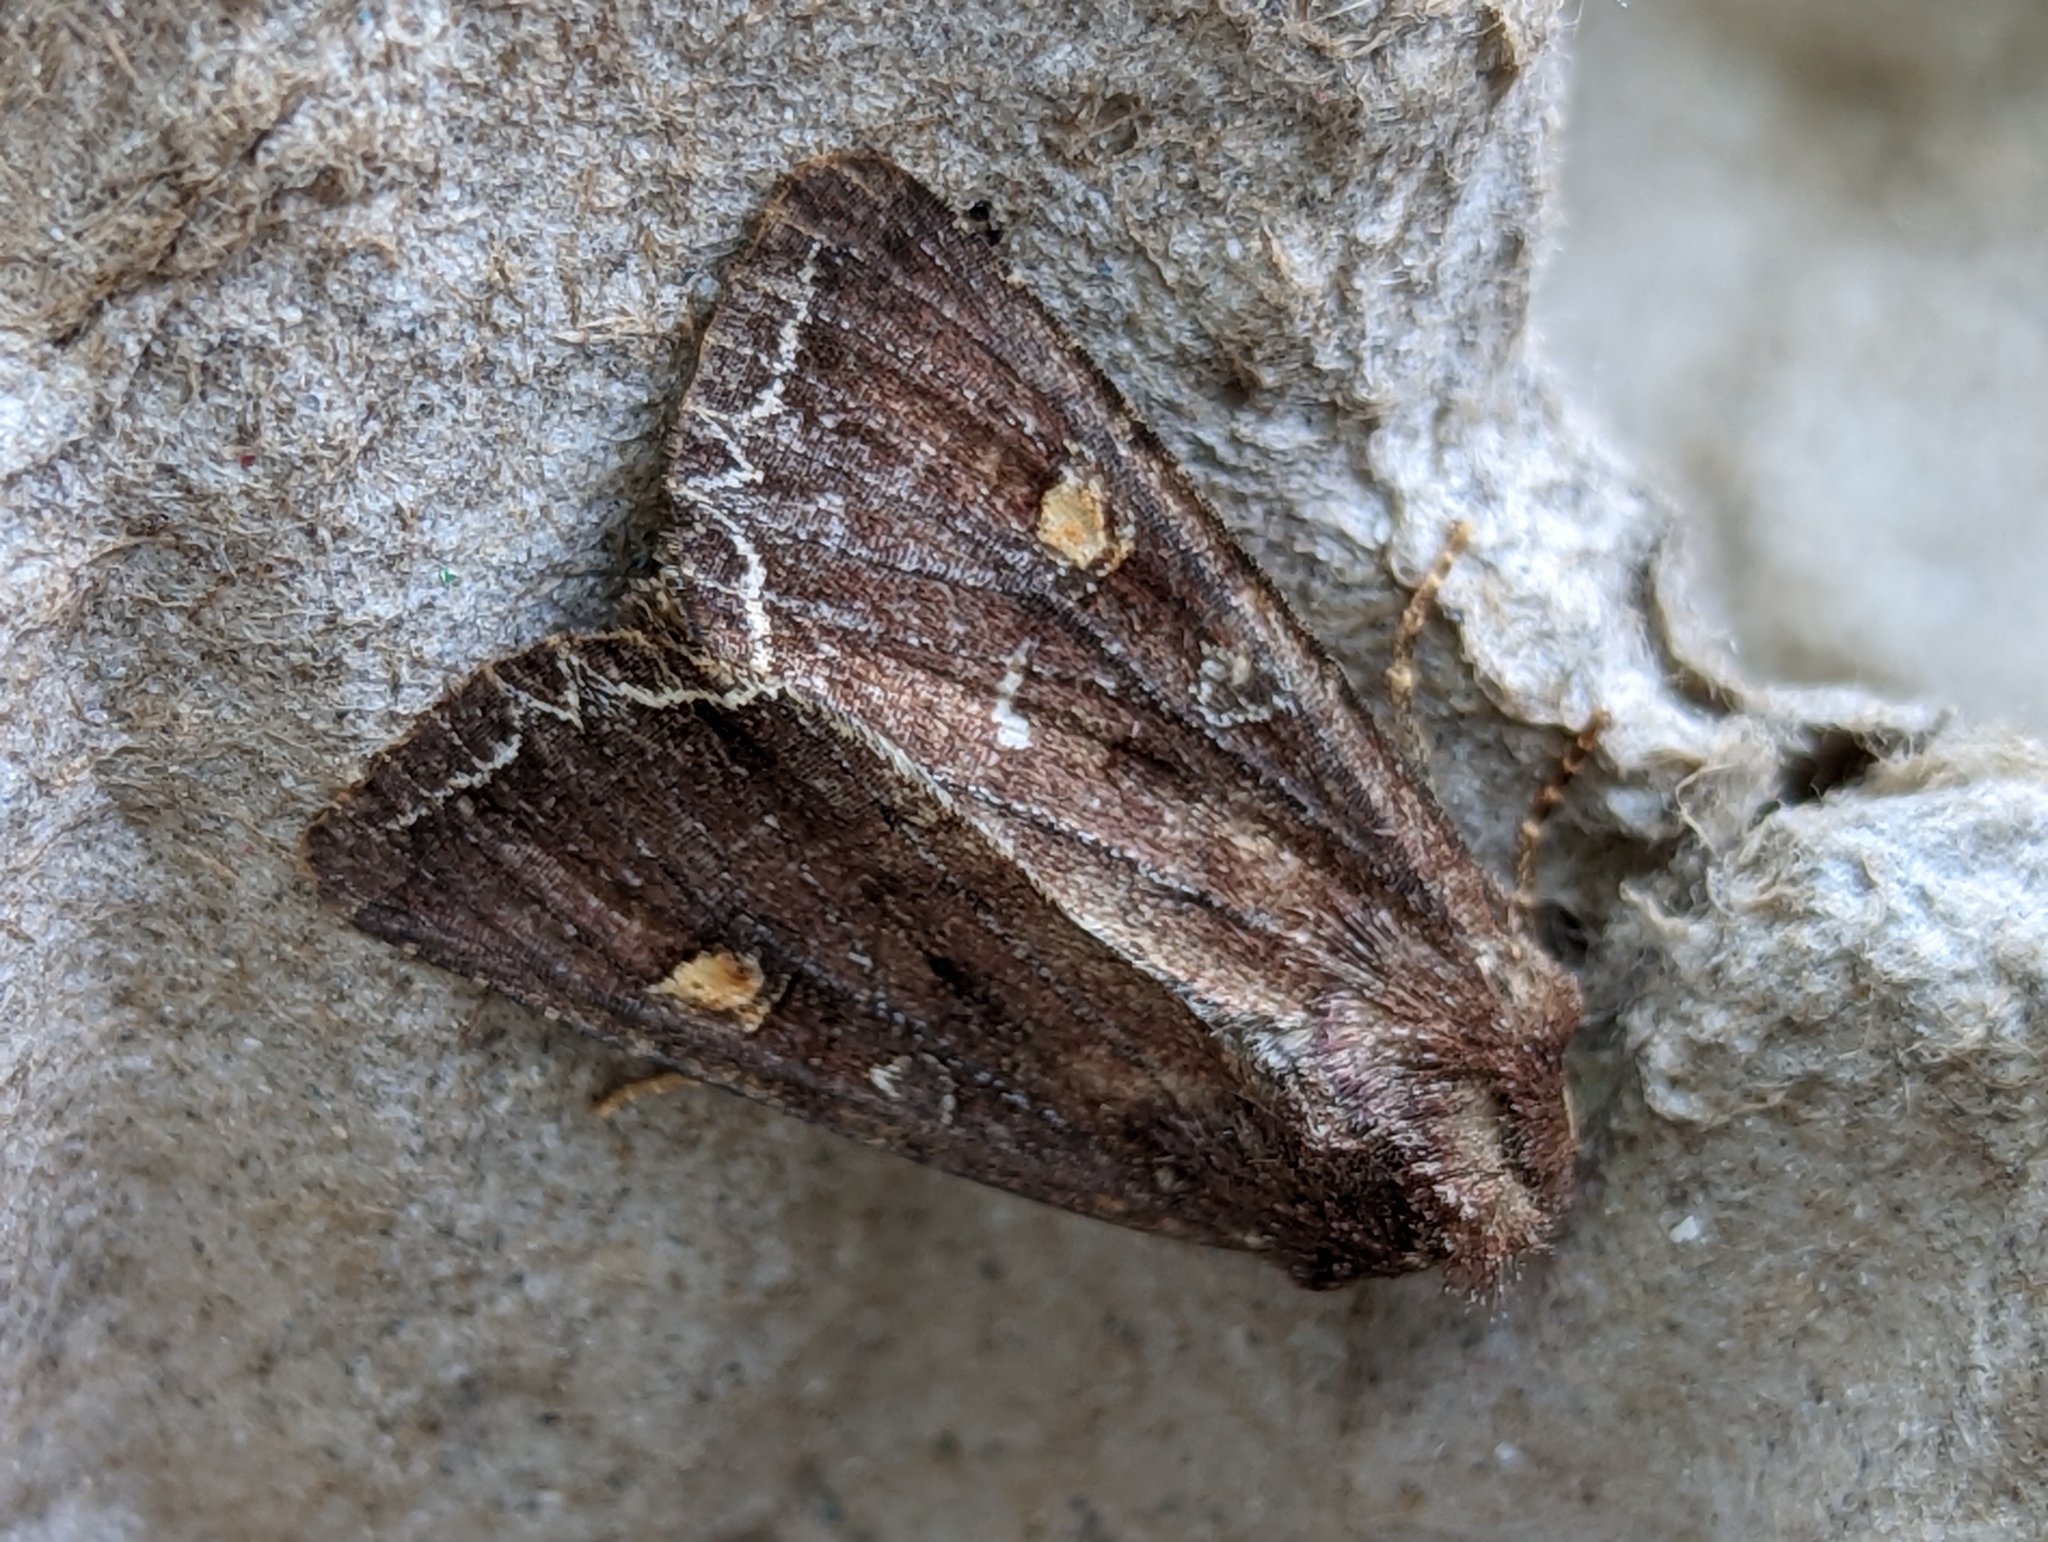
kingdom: Animalia
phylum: Arthropoda
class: Insecta
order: Lepidoptera
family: Noctuidae
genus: Lacanobia
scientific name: Lacanobia oleracea
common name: Bright-line brown-eye
